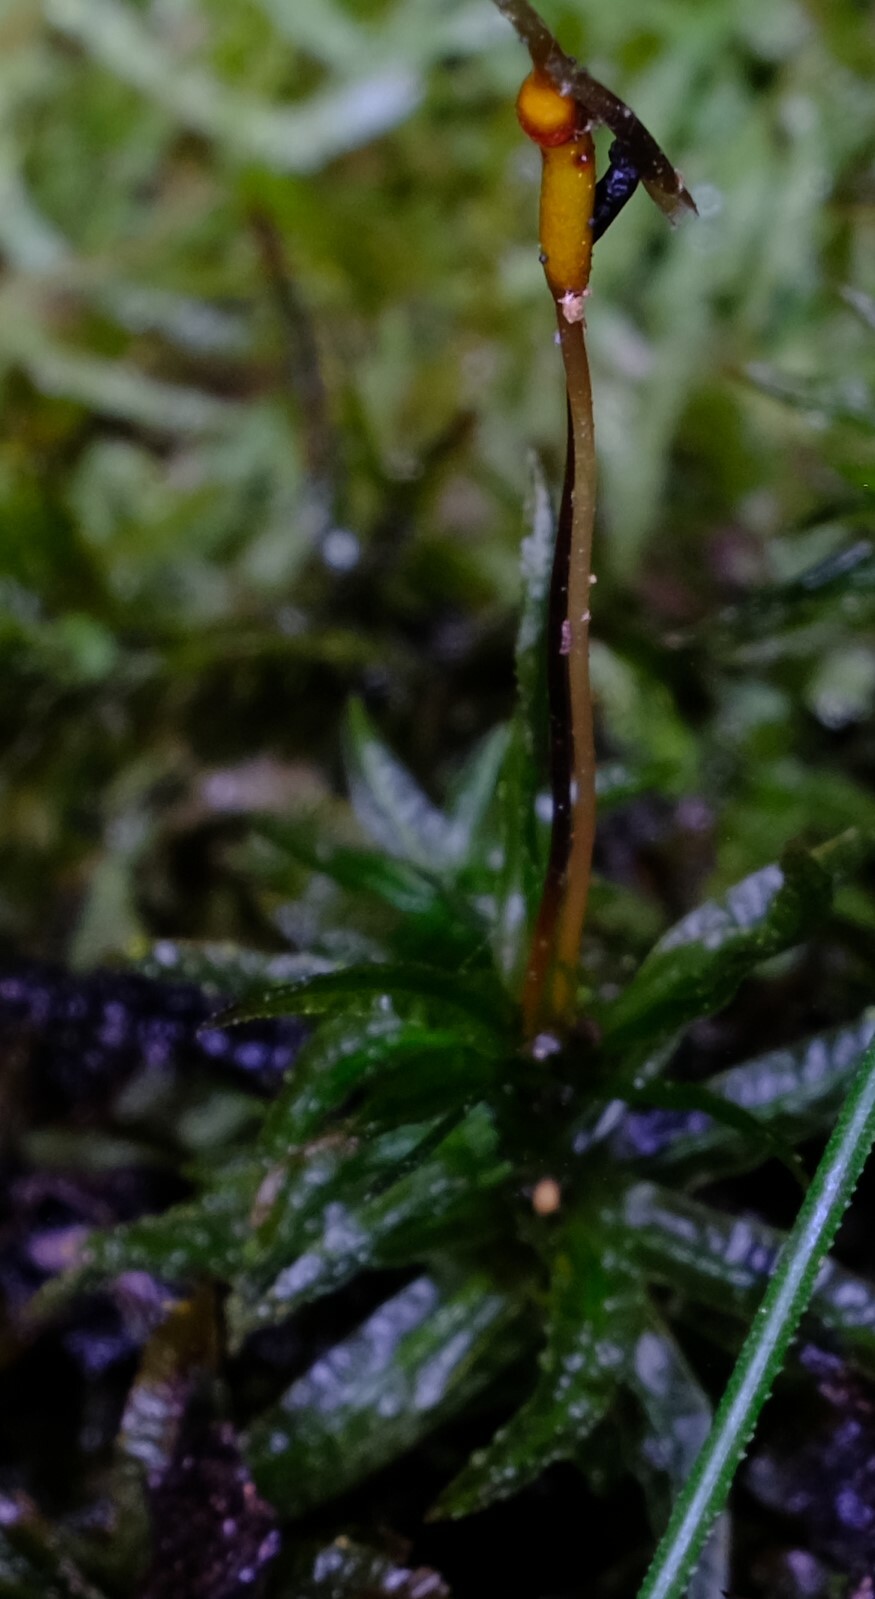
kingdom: Plantae
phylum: Bryophyta
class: Polytrichopsida
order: Polytrichales
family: Polytrichaceae
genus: Atrichum
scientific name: Atrichum androgynum
